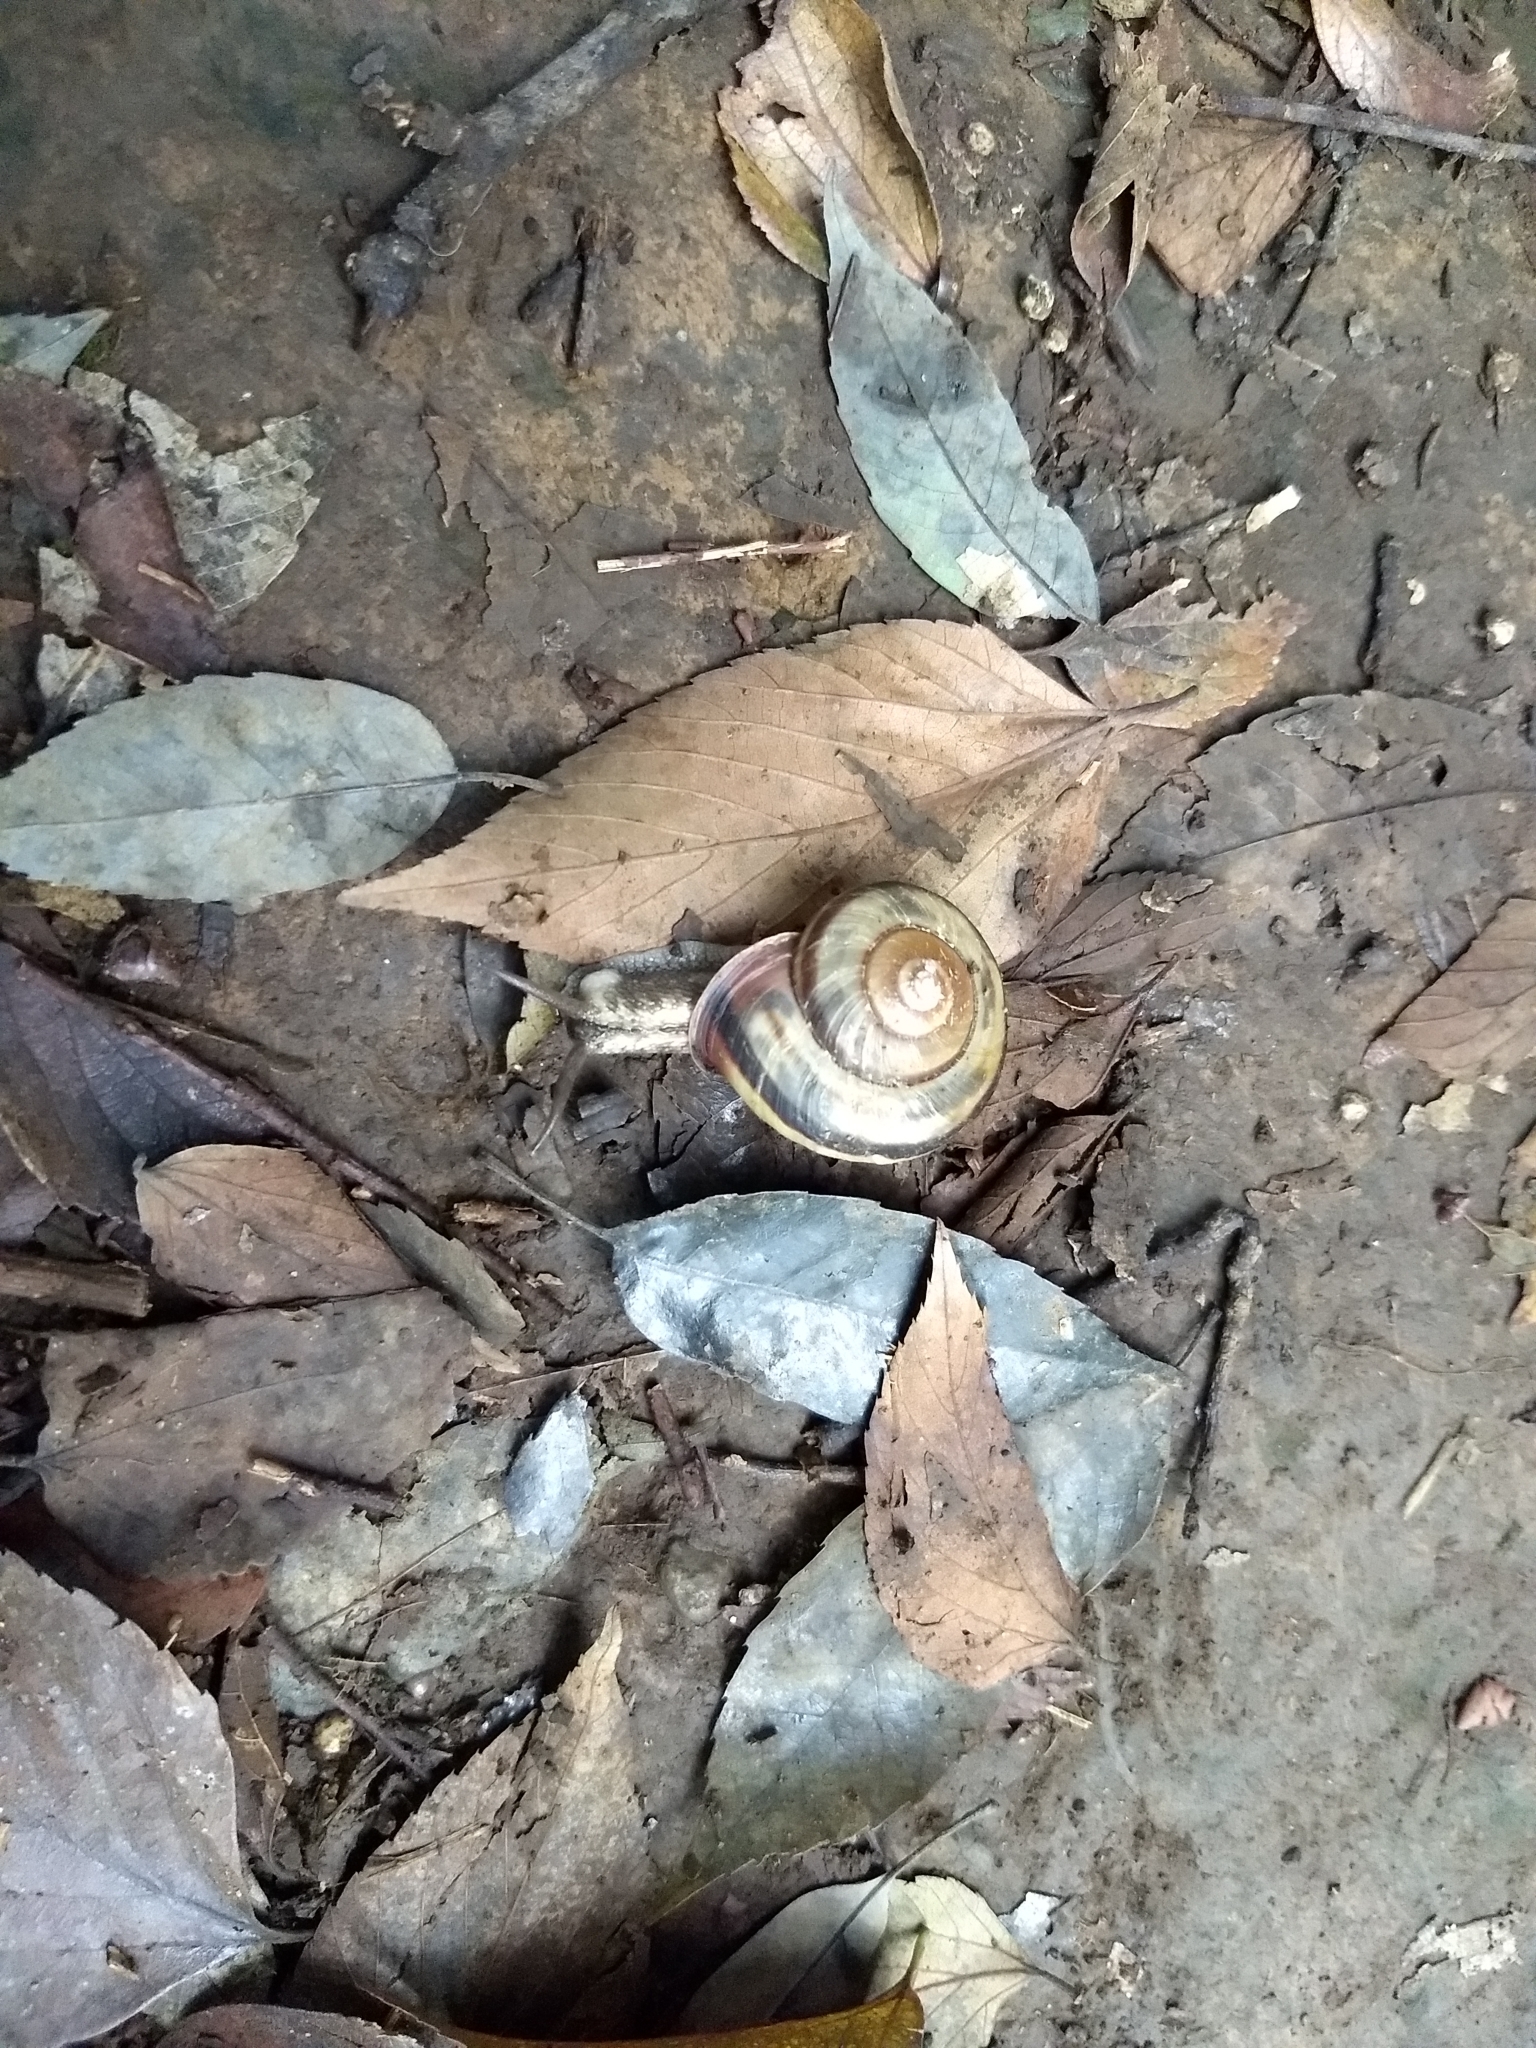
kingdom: Animalia
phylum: Mollusca
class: Gastropoda
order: Stylommatophora
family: Camaenidae
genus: Euhadra
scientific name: Euhadra peliomphala
